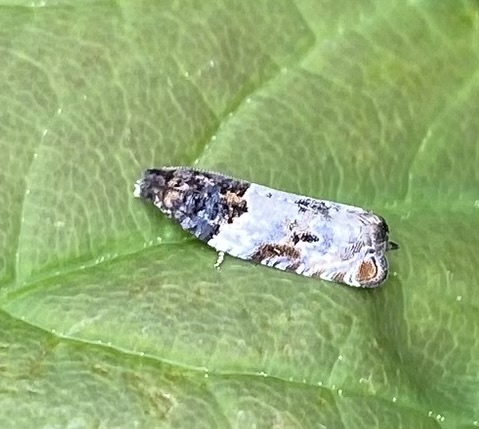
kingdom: Animalia
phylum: Arthropoda
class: Insecta
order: Lepidoptera
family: Tortricidae
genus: Gypsonoma
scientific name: Gypsonoma dealbana
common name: Common cloaked shoot
